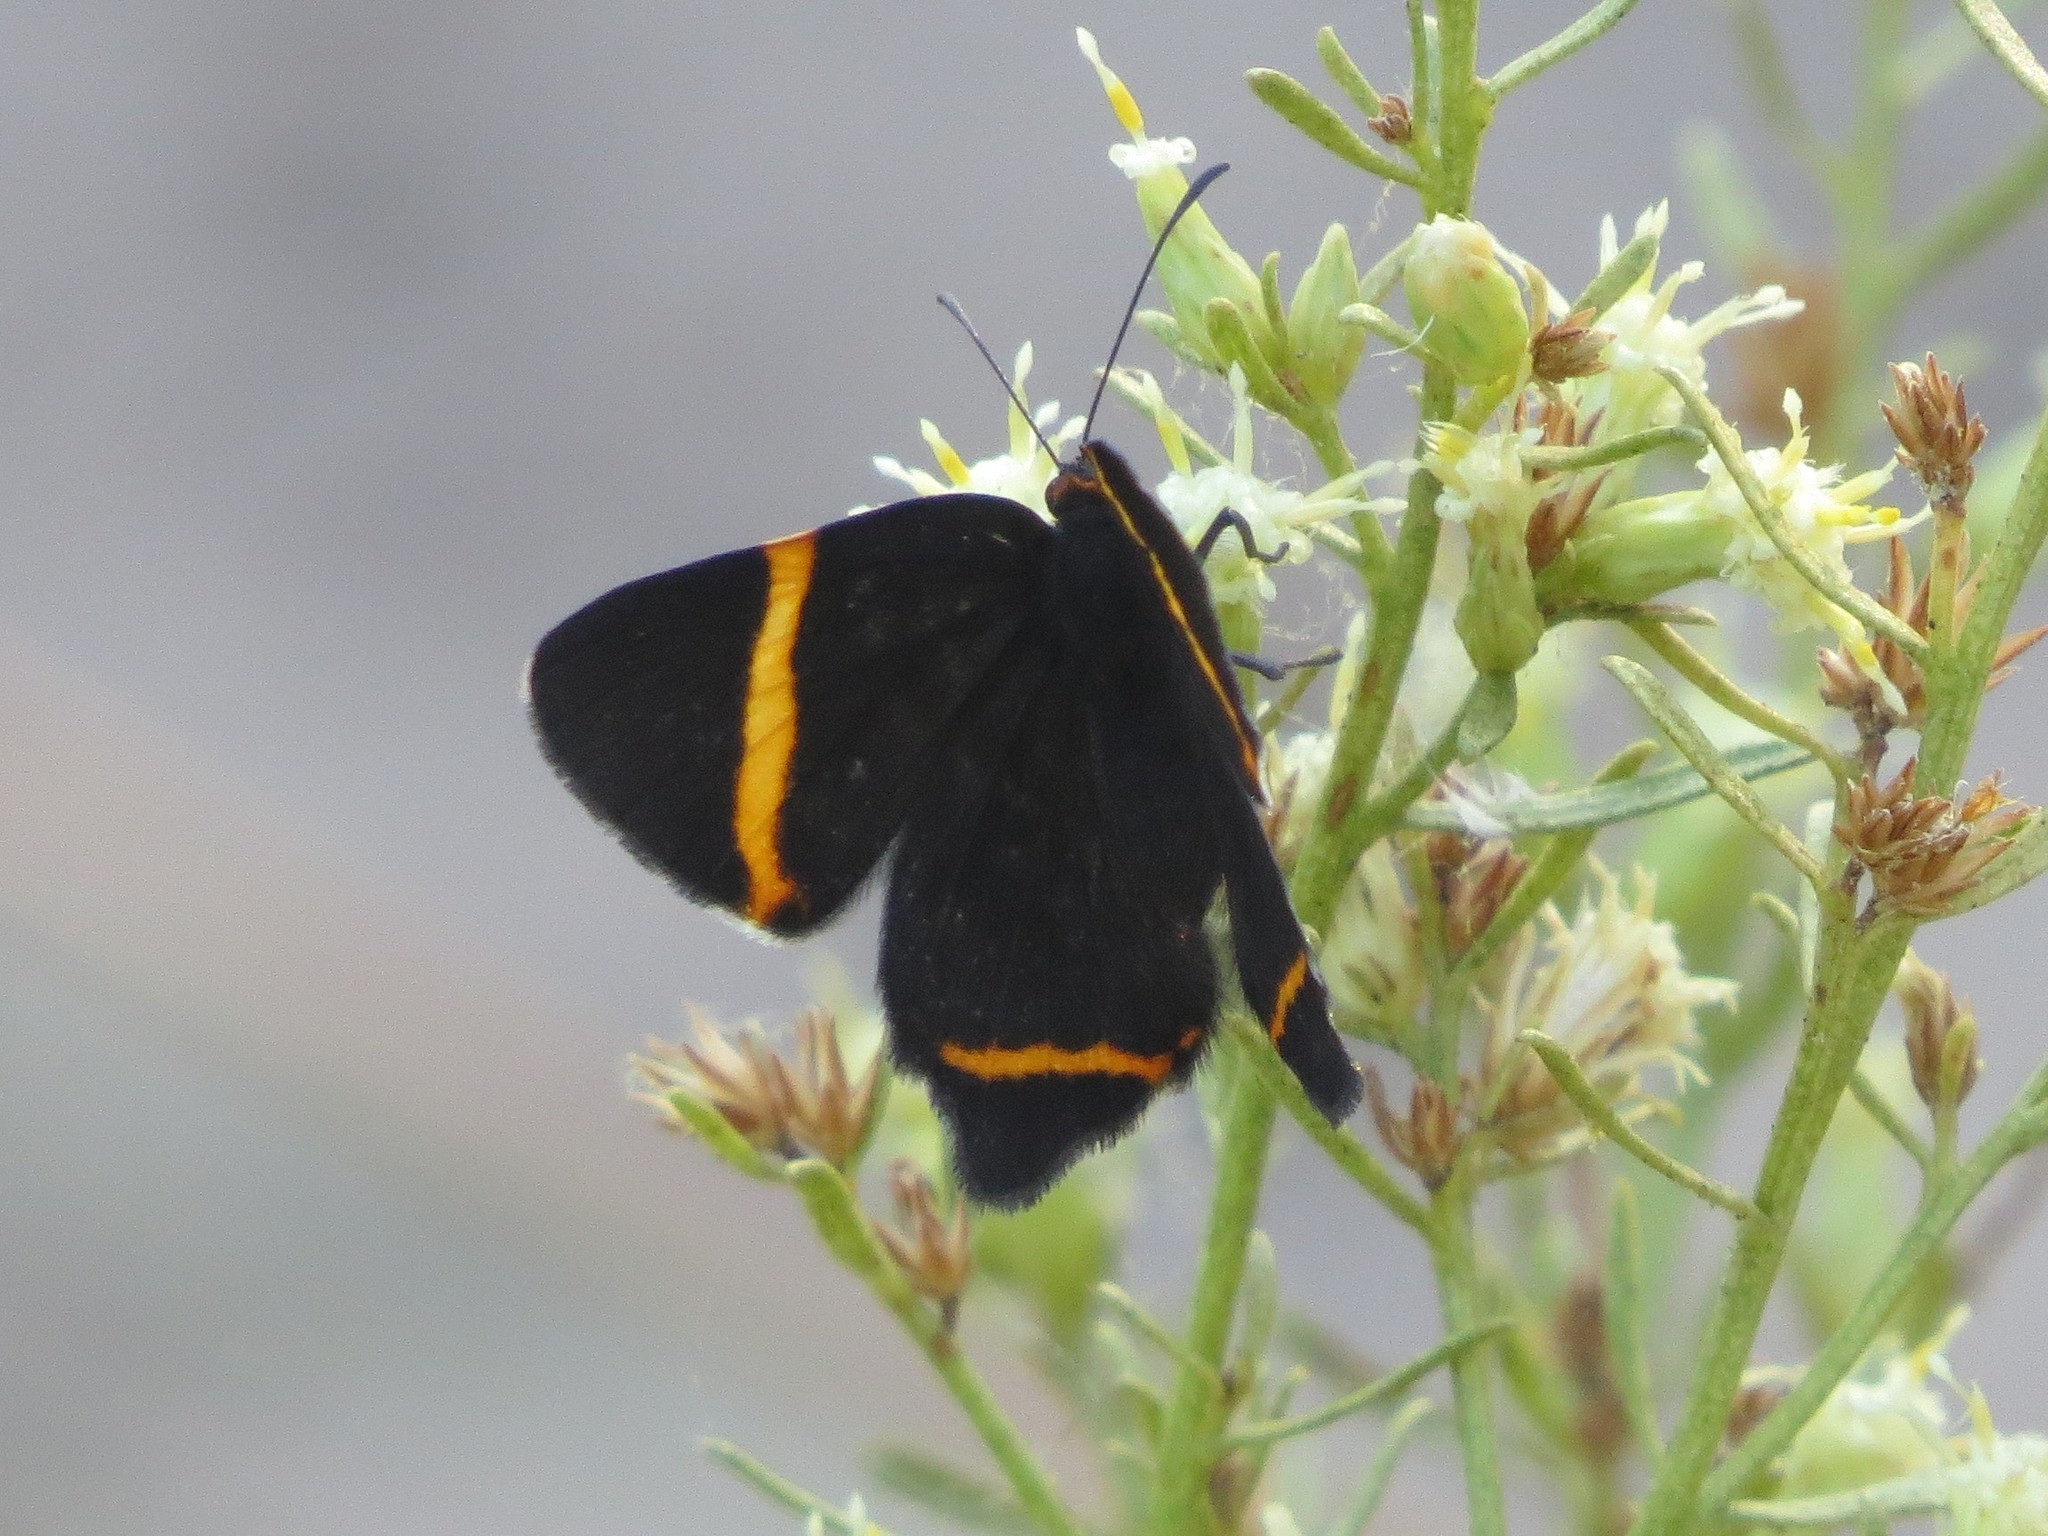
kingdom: Animalia
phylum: Arthropoda
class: Insecta
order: Lepidoptera
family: Riodinidae
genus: Riodina
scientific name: Riodina lysippoides
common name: Little dancer metalmark
